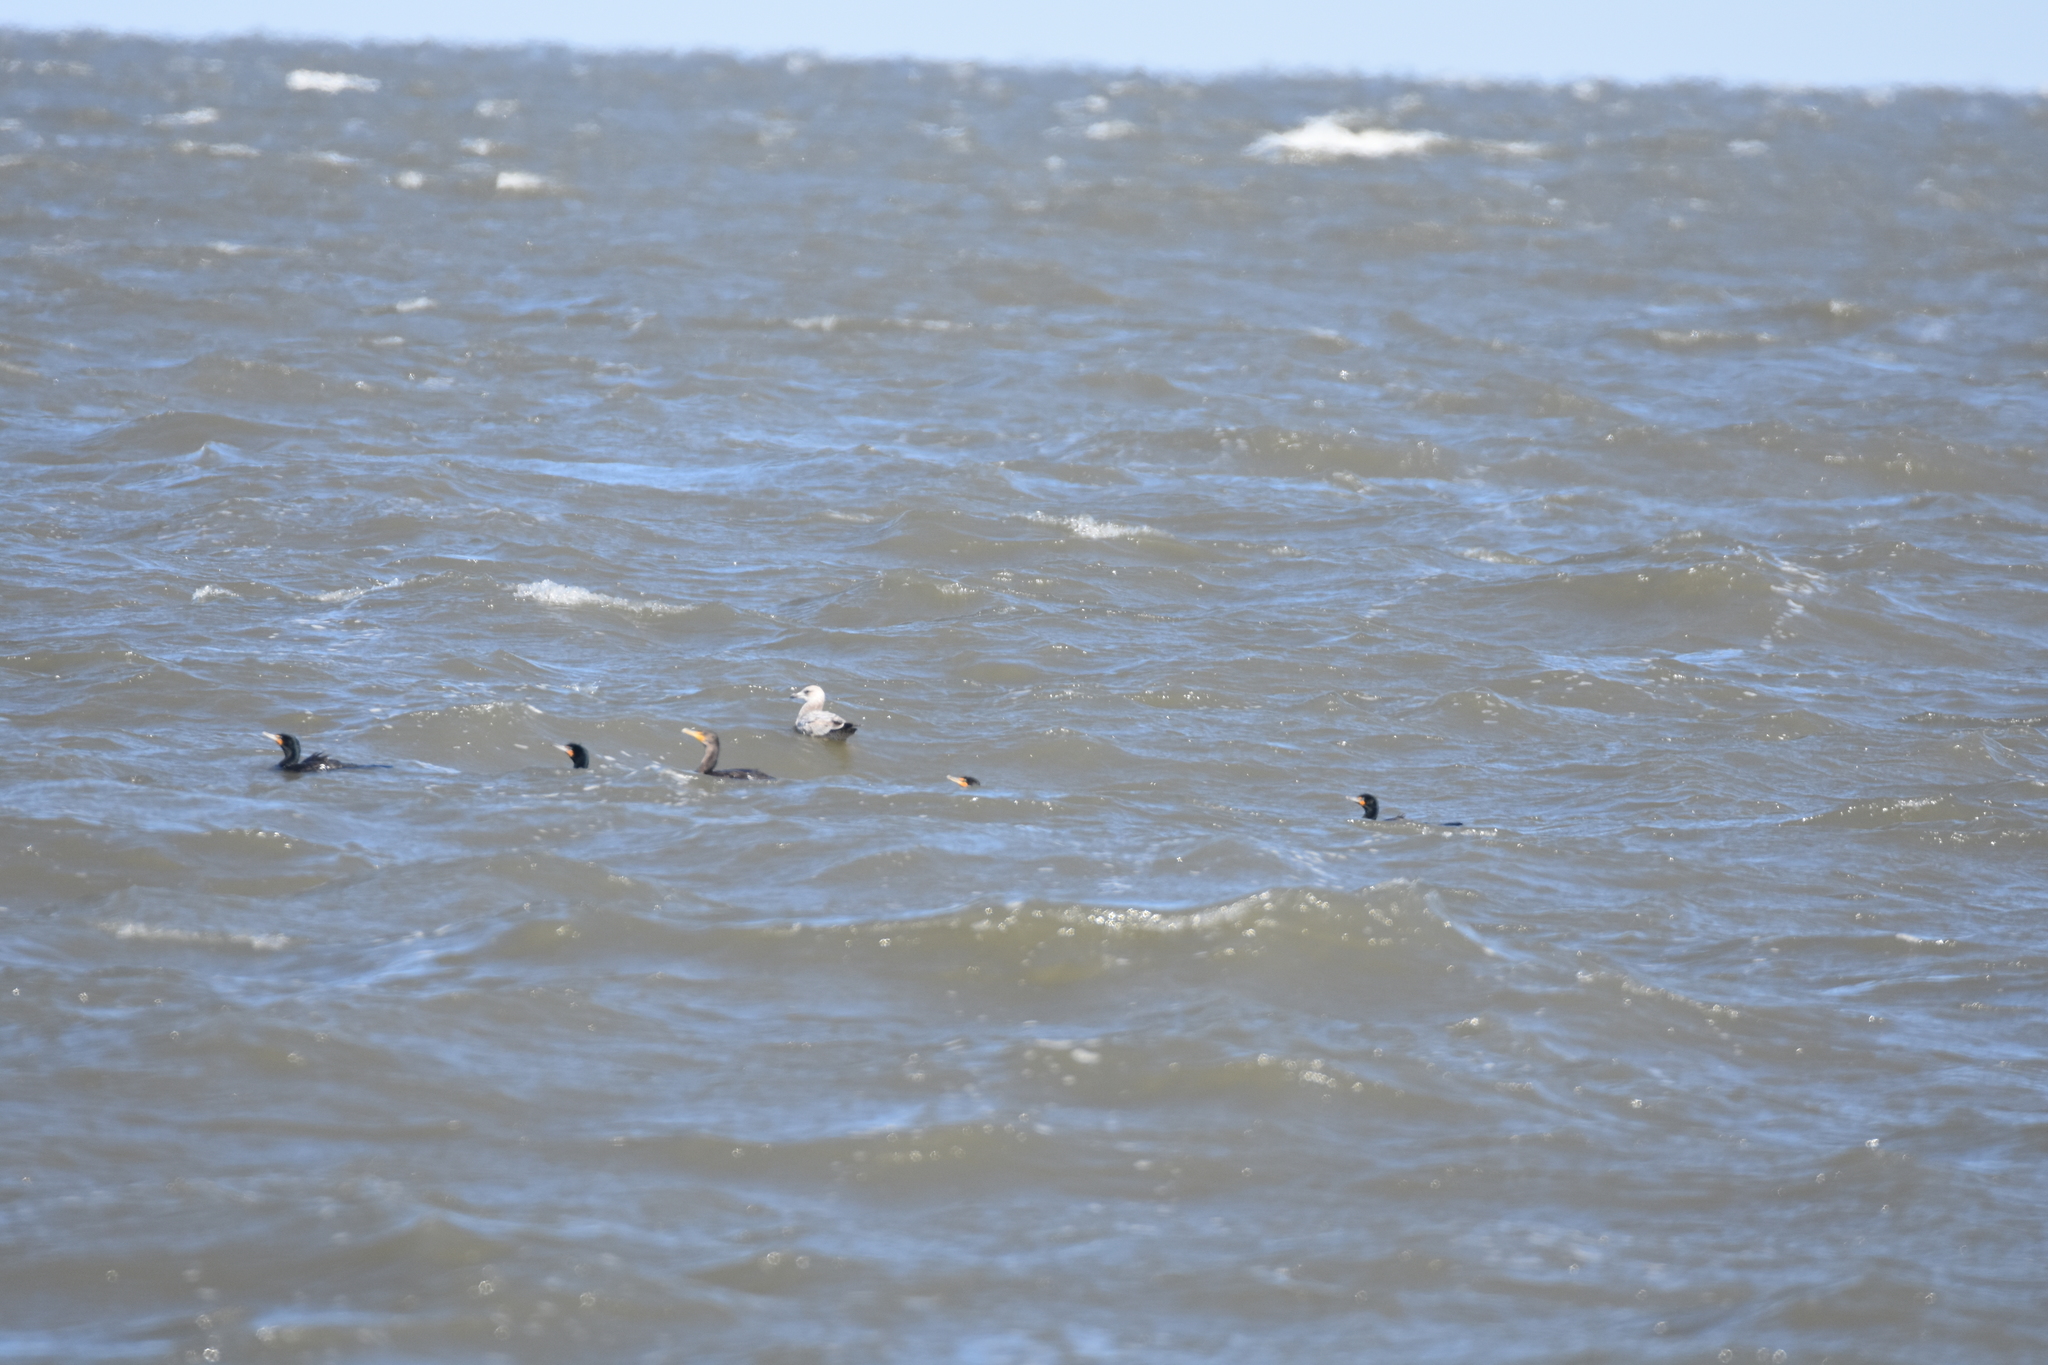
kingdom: Animalia
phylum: Chordata
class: Aves
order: Suliformes
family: Phalacrocoracidae
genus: Phalacrocorax
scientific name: Phalacrocorax auritus
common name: Double-crested cormorant
